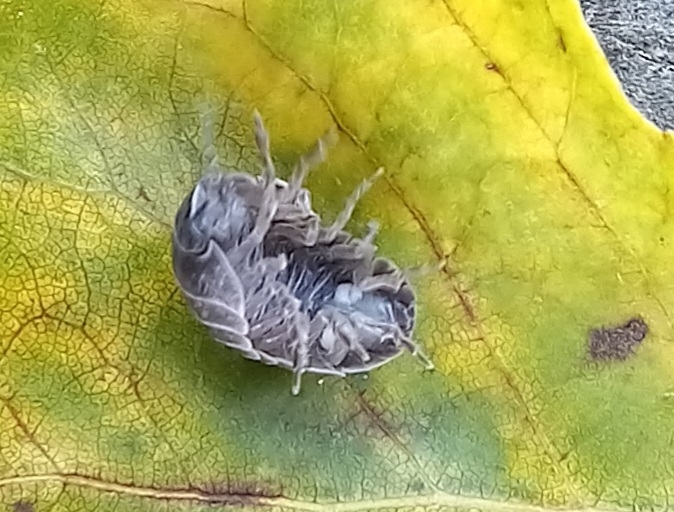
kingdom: Animalia
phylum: Arthropoda
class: Malacostraca
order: Isopoda
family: Armadillidiidae
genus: Armadillidium
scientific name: Armadillidium vulgare
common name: Common pill woodlouse
